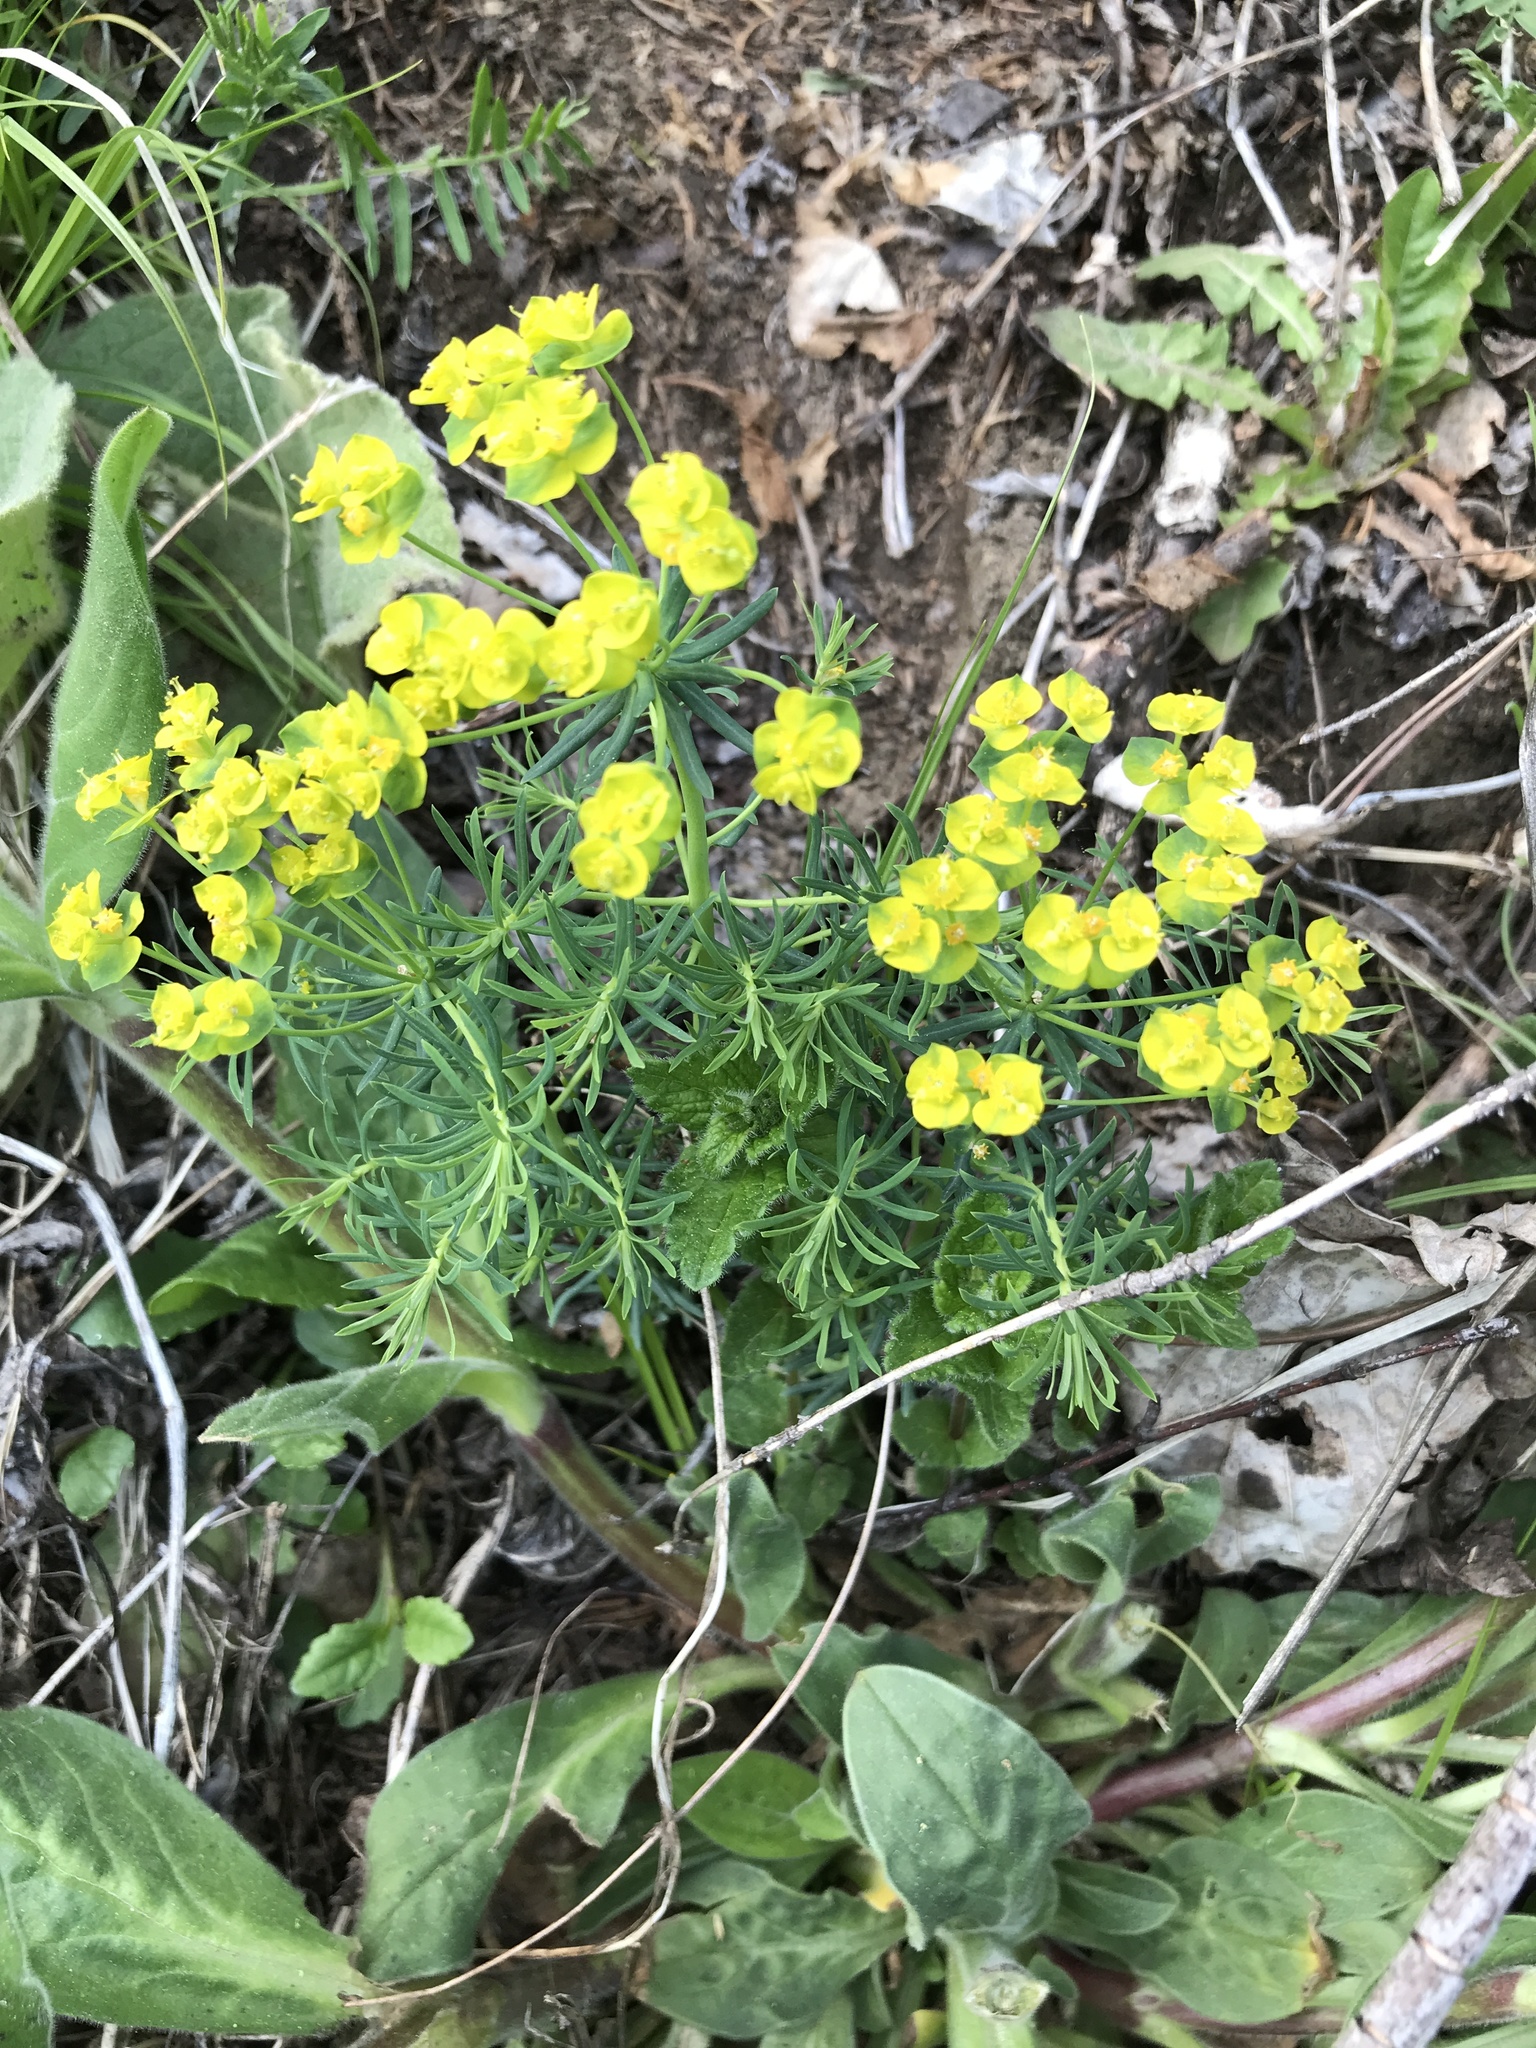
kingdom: Plantae
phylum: Tracheophyta
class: Magnoliopsida
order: Malpighiales
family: Euphorbiaceae
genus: Euphorbia
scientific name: Euphorbia cyparissias
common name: Cypress spurge
